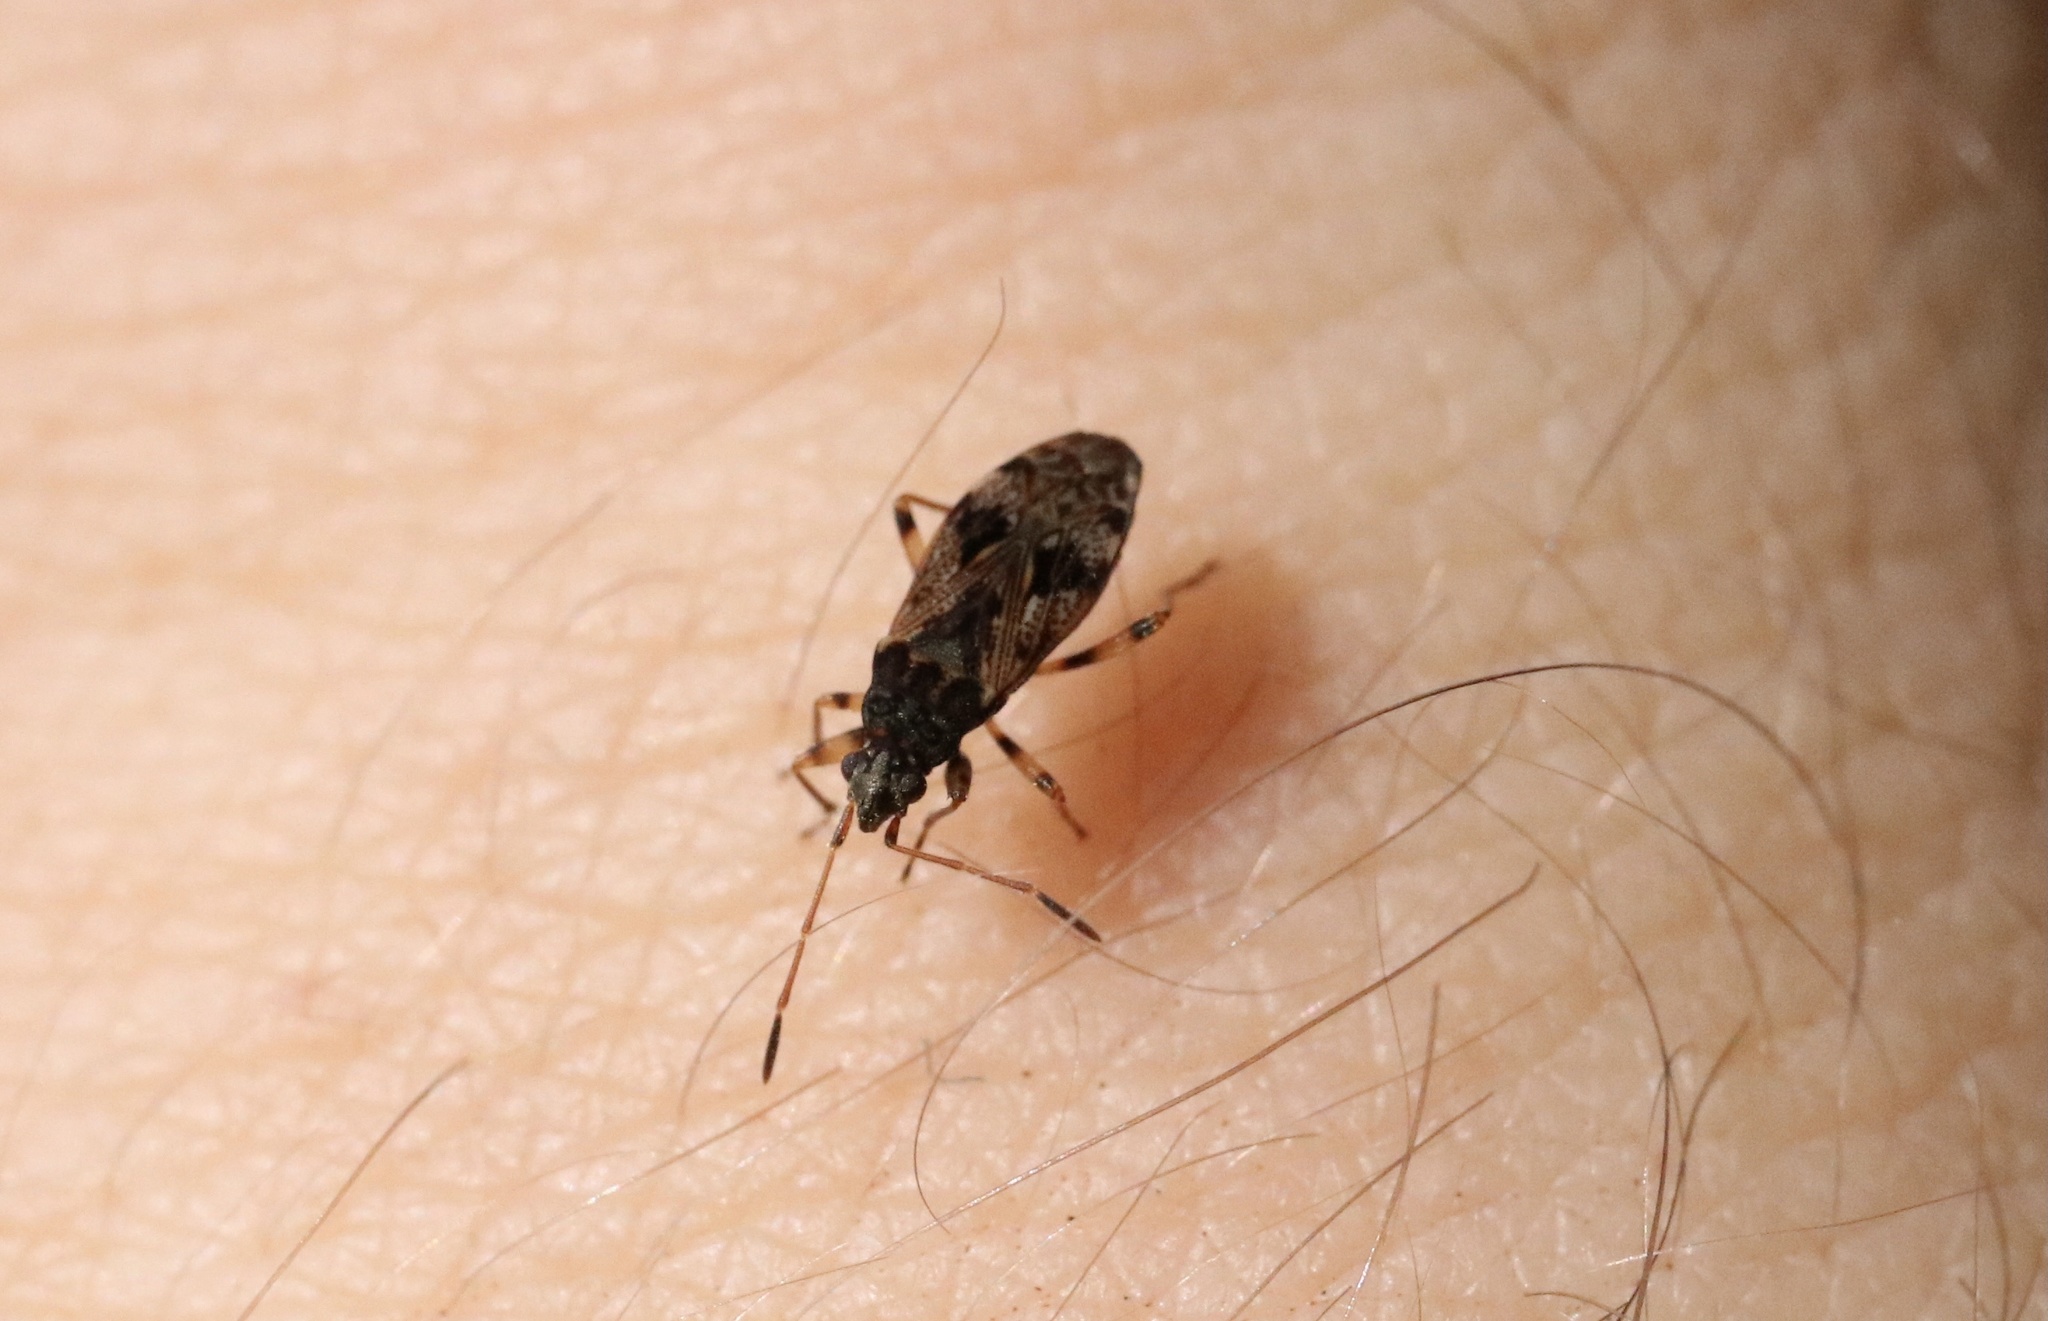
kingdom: Animalia
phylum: Arthropoda
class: Insecta
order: Hemiptera
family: Rhyparochromidae
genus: Bergidea
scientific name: Bergidea polychroma
